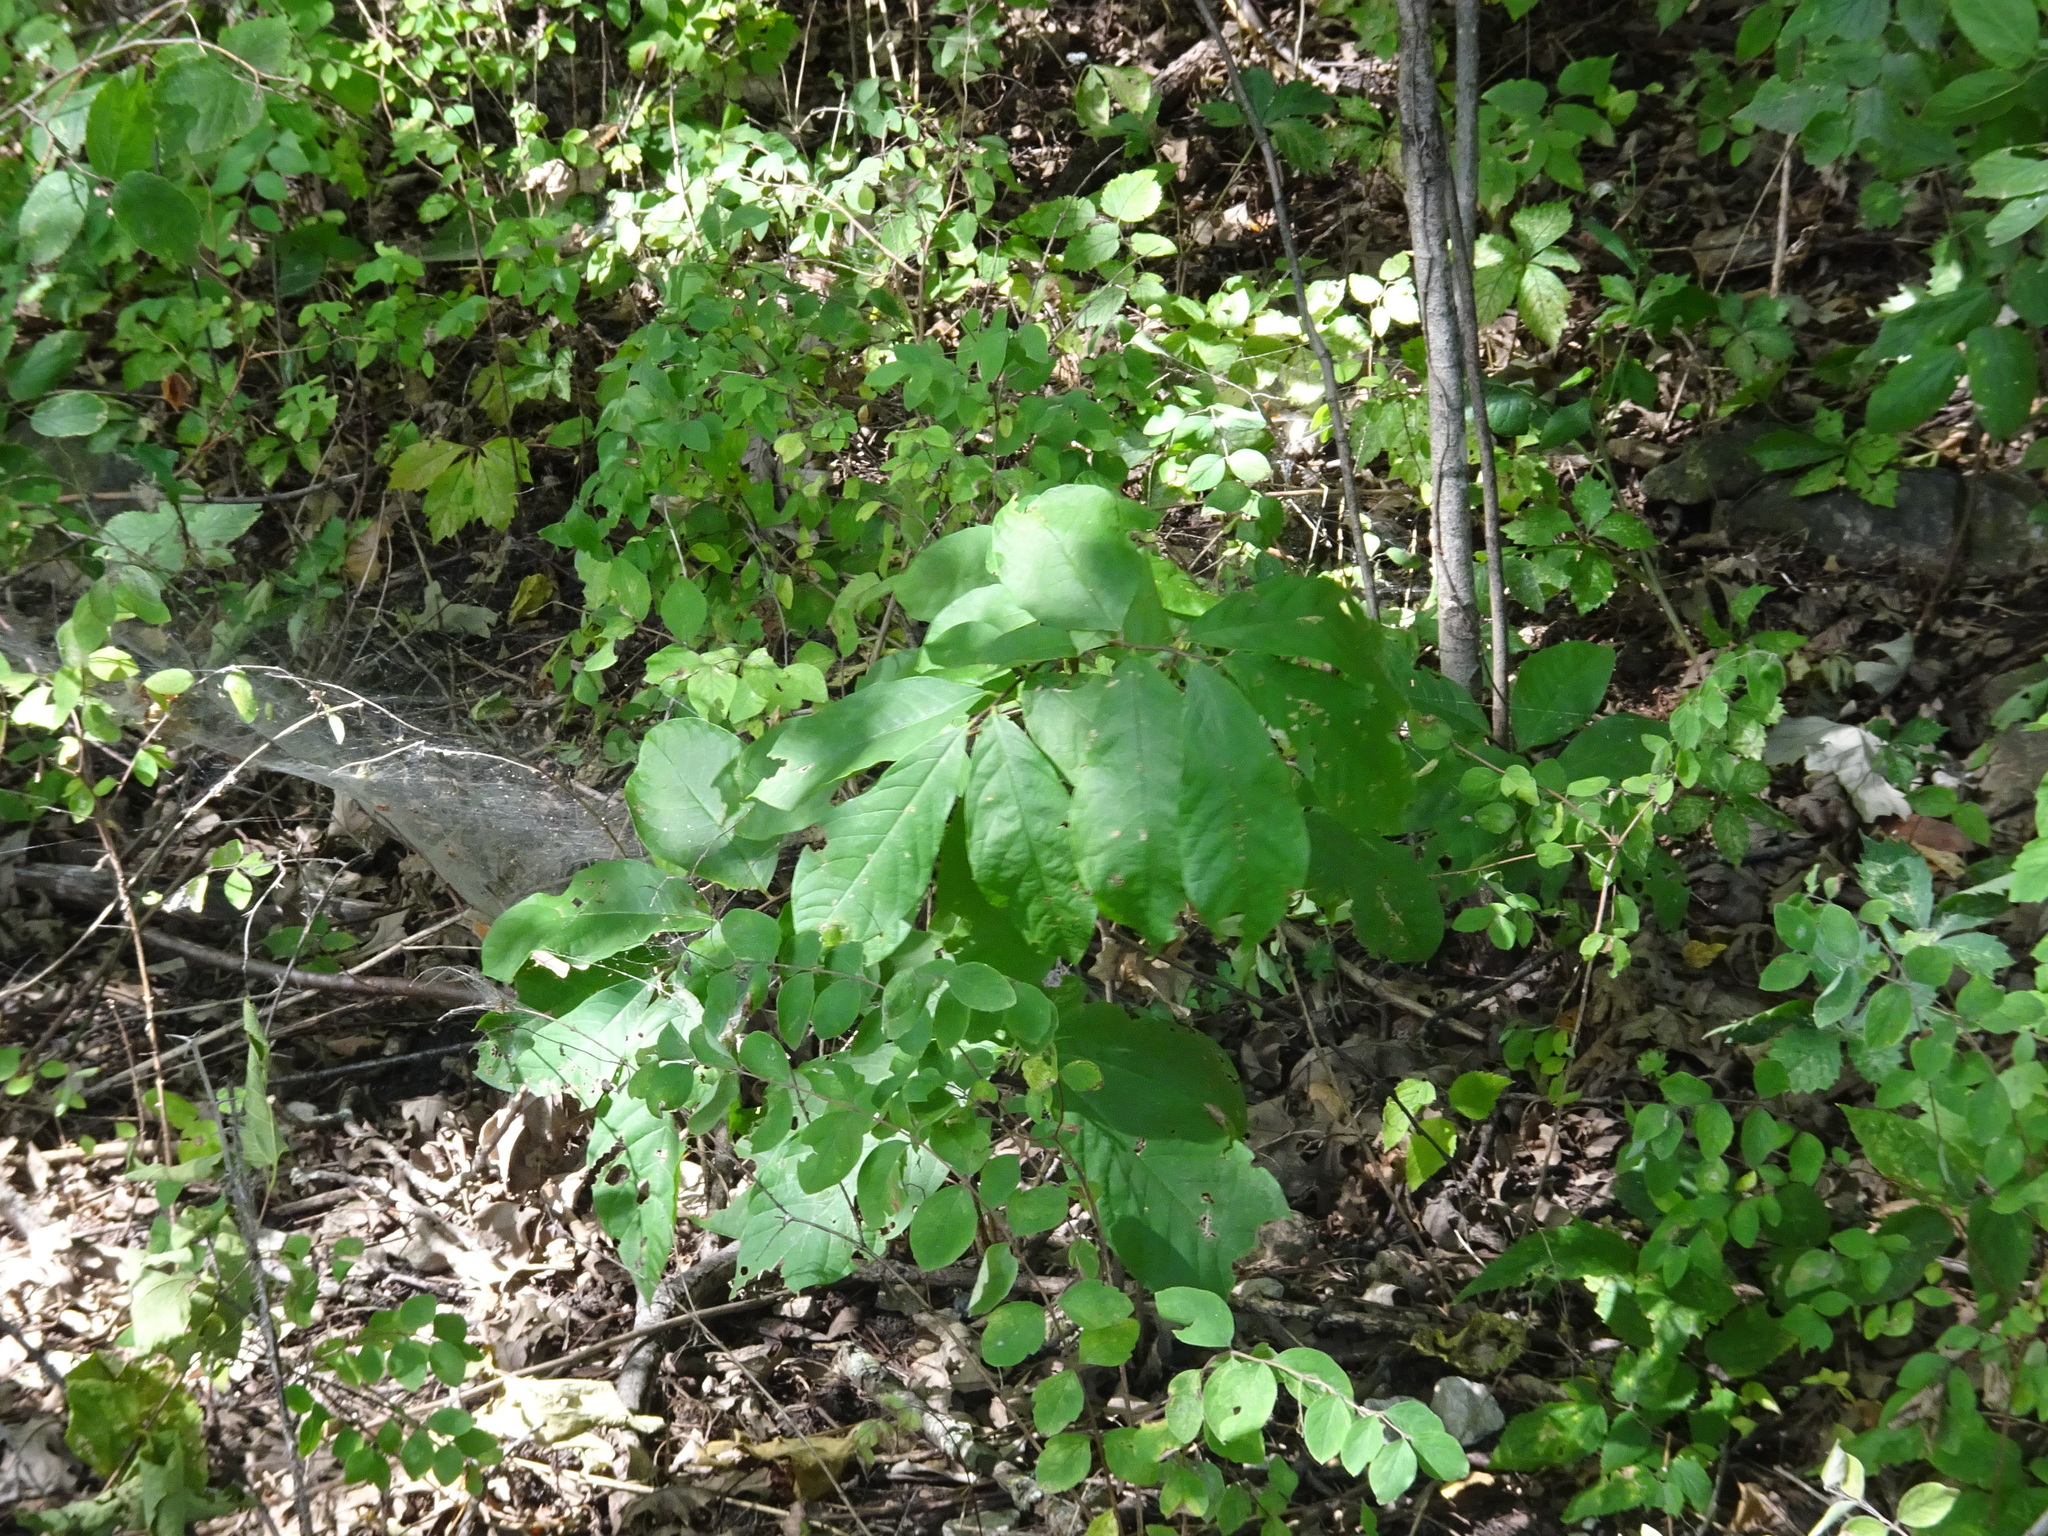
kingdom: Plantae
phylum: Tracheophyta
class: Magnoliopsida
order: Magnoliales
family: Annonaceae
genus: Asimina
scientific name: Asimina triloba
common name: Dog-banana
